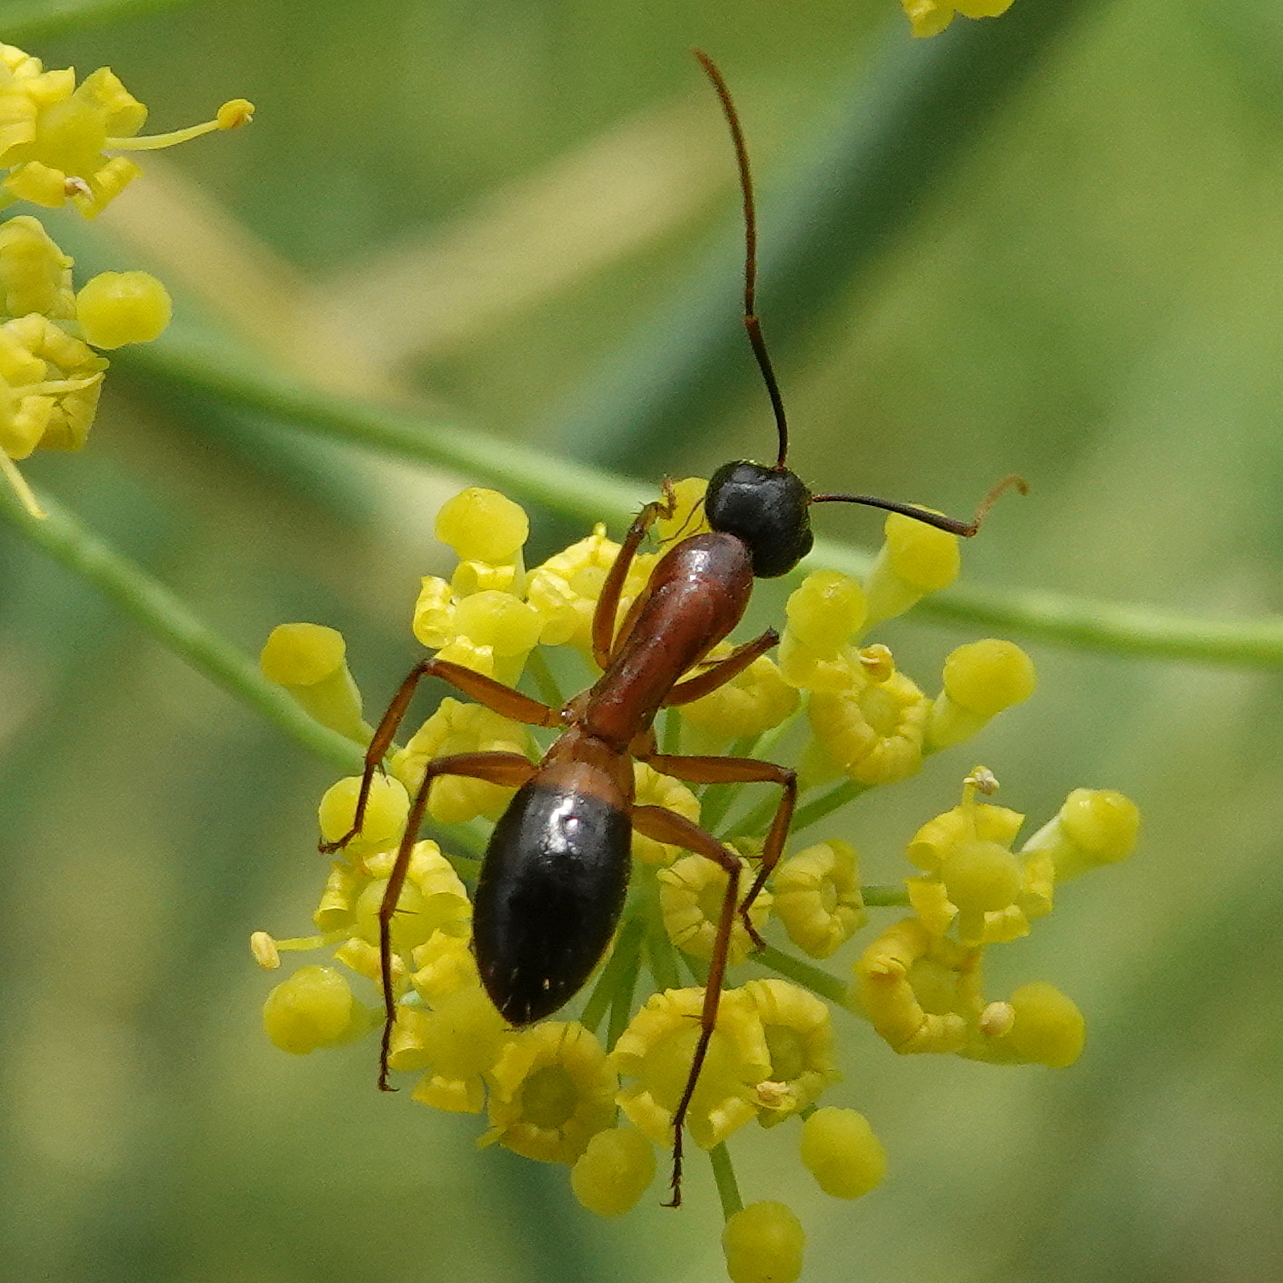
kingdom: Animalia
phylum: Arthropoda
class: Insecta
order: Hymenoptera
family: Formicidae
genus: Camponotus
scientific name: Camponotus consobrinus
